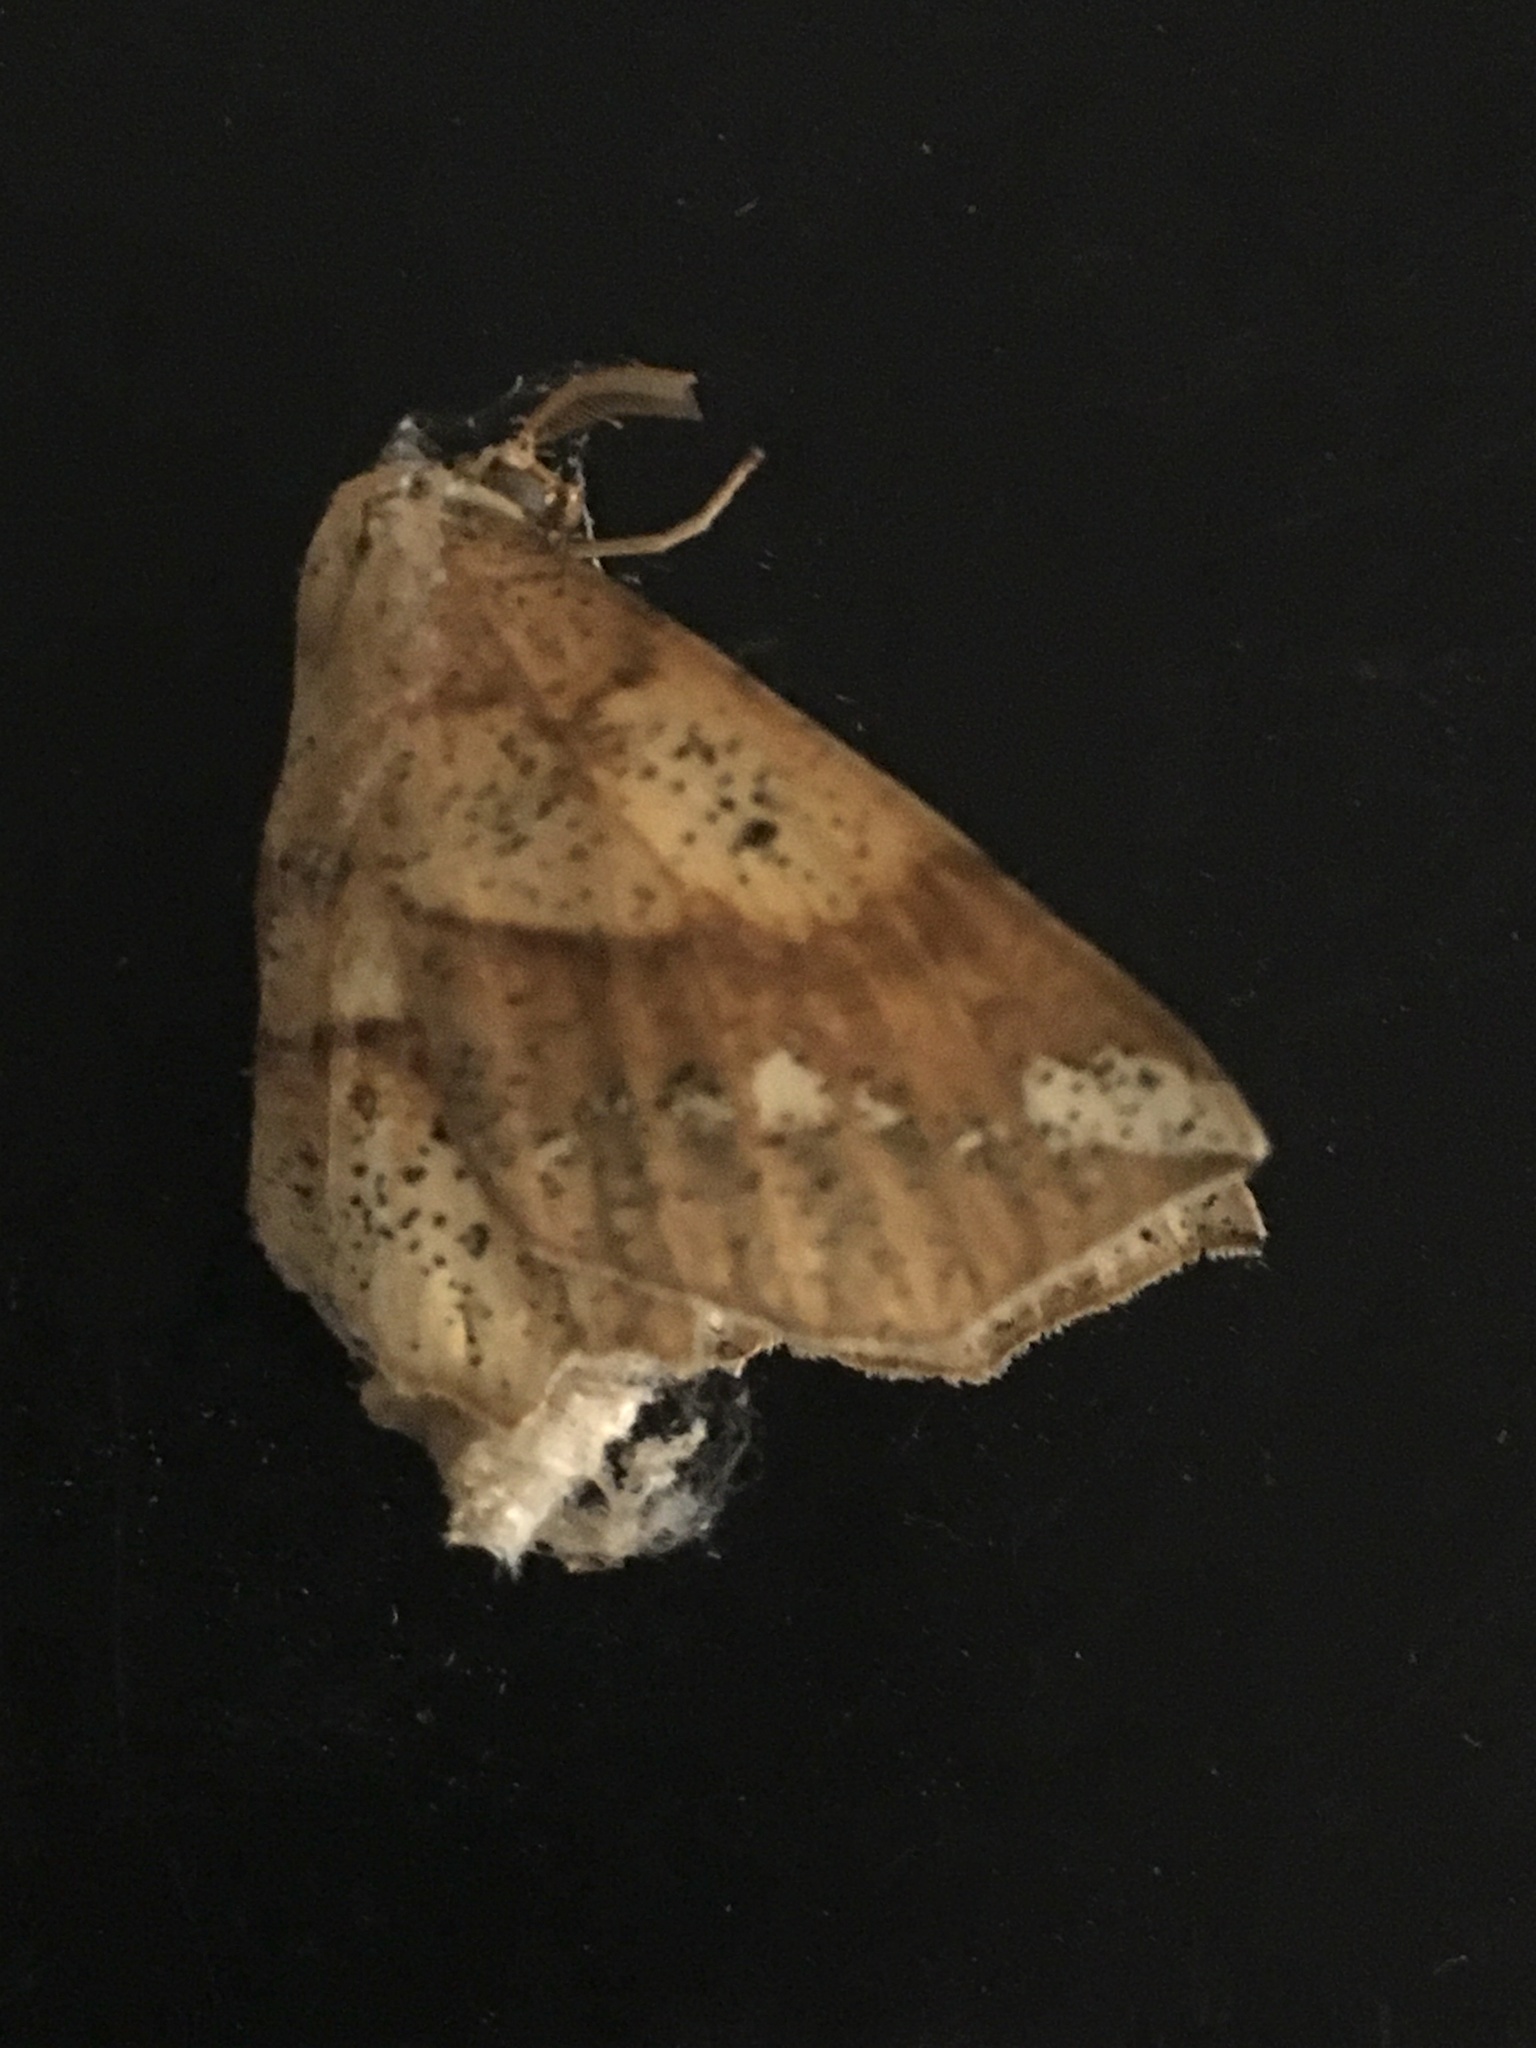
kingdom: Animalia
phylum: Arthropoda
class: Insecta
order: Lepidoptera
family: Geometridae
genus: Euchlaena
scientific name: Euchlaena amoenaria
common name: Deep yellow euchlaena
